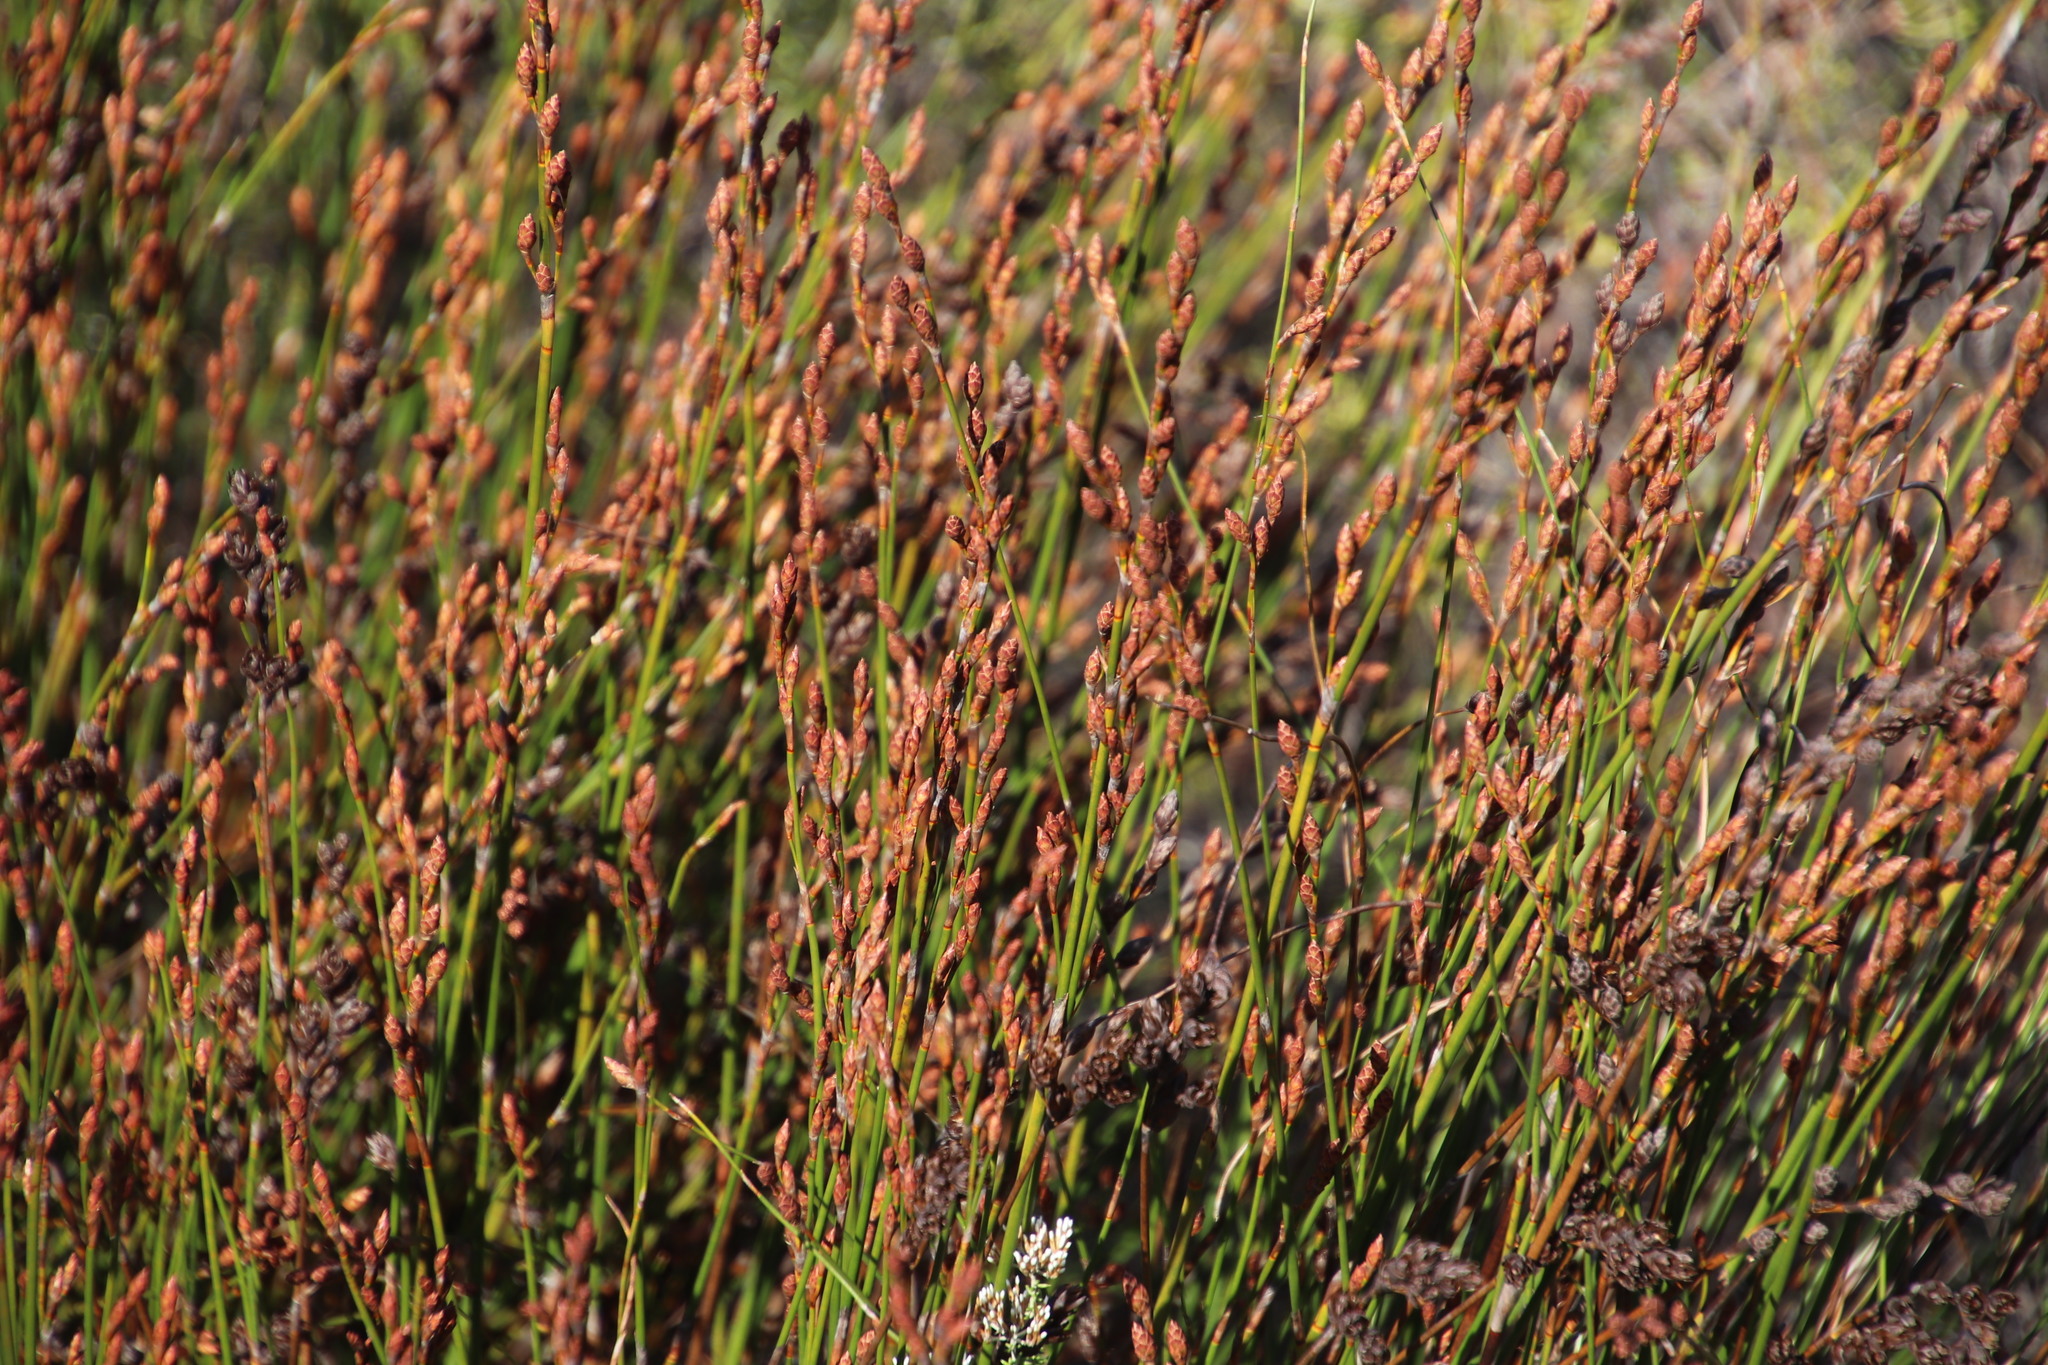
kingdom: Plantae
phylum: Tracheophyta
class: Liliopsida
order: Poales
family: Restionaceae
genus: Restio
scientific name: Restio bifurcus
